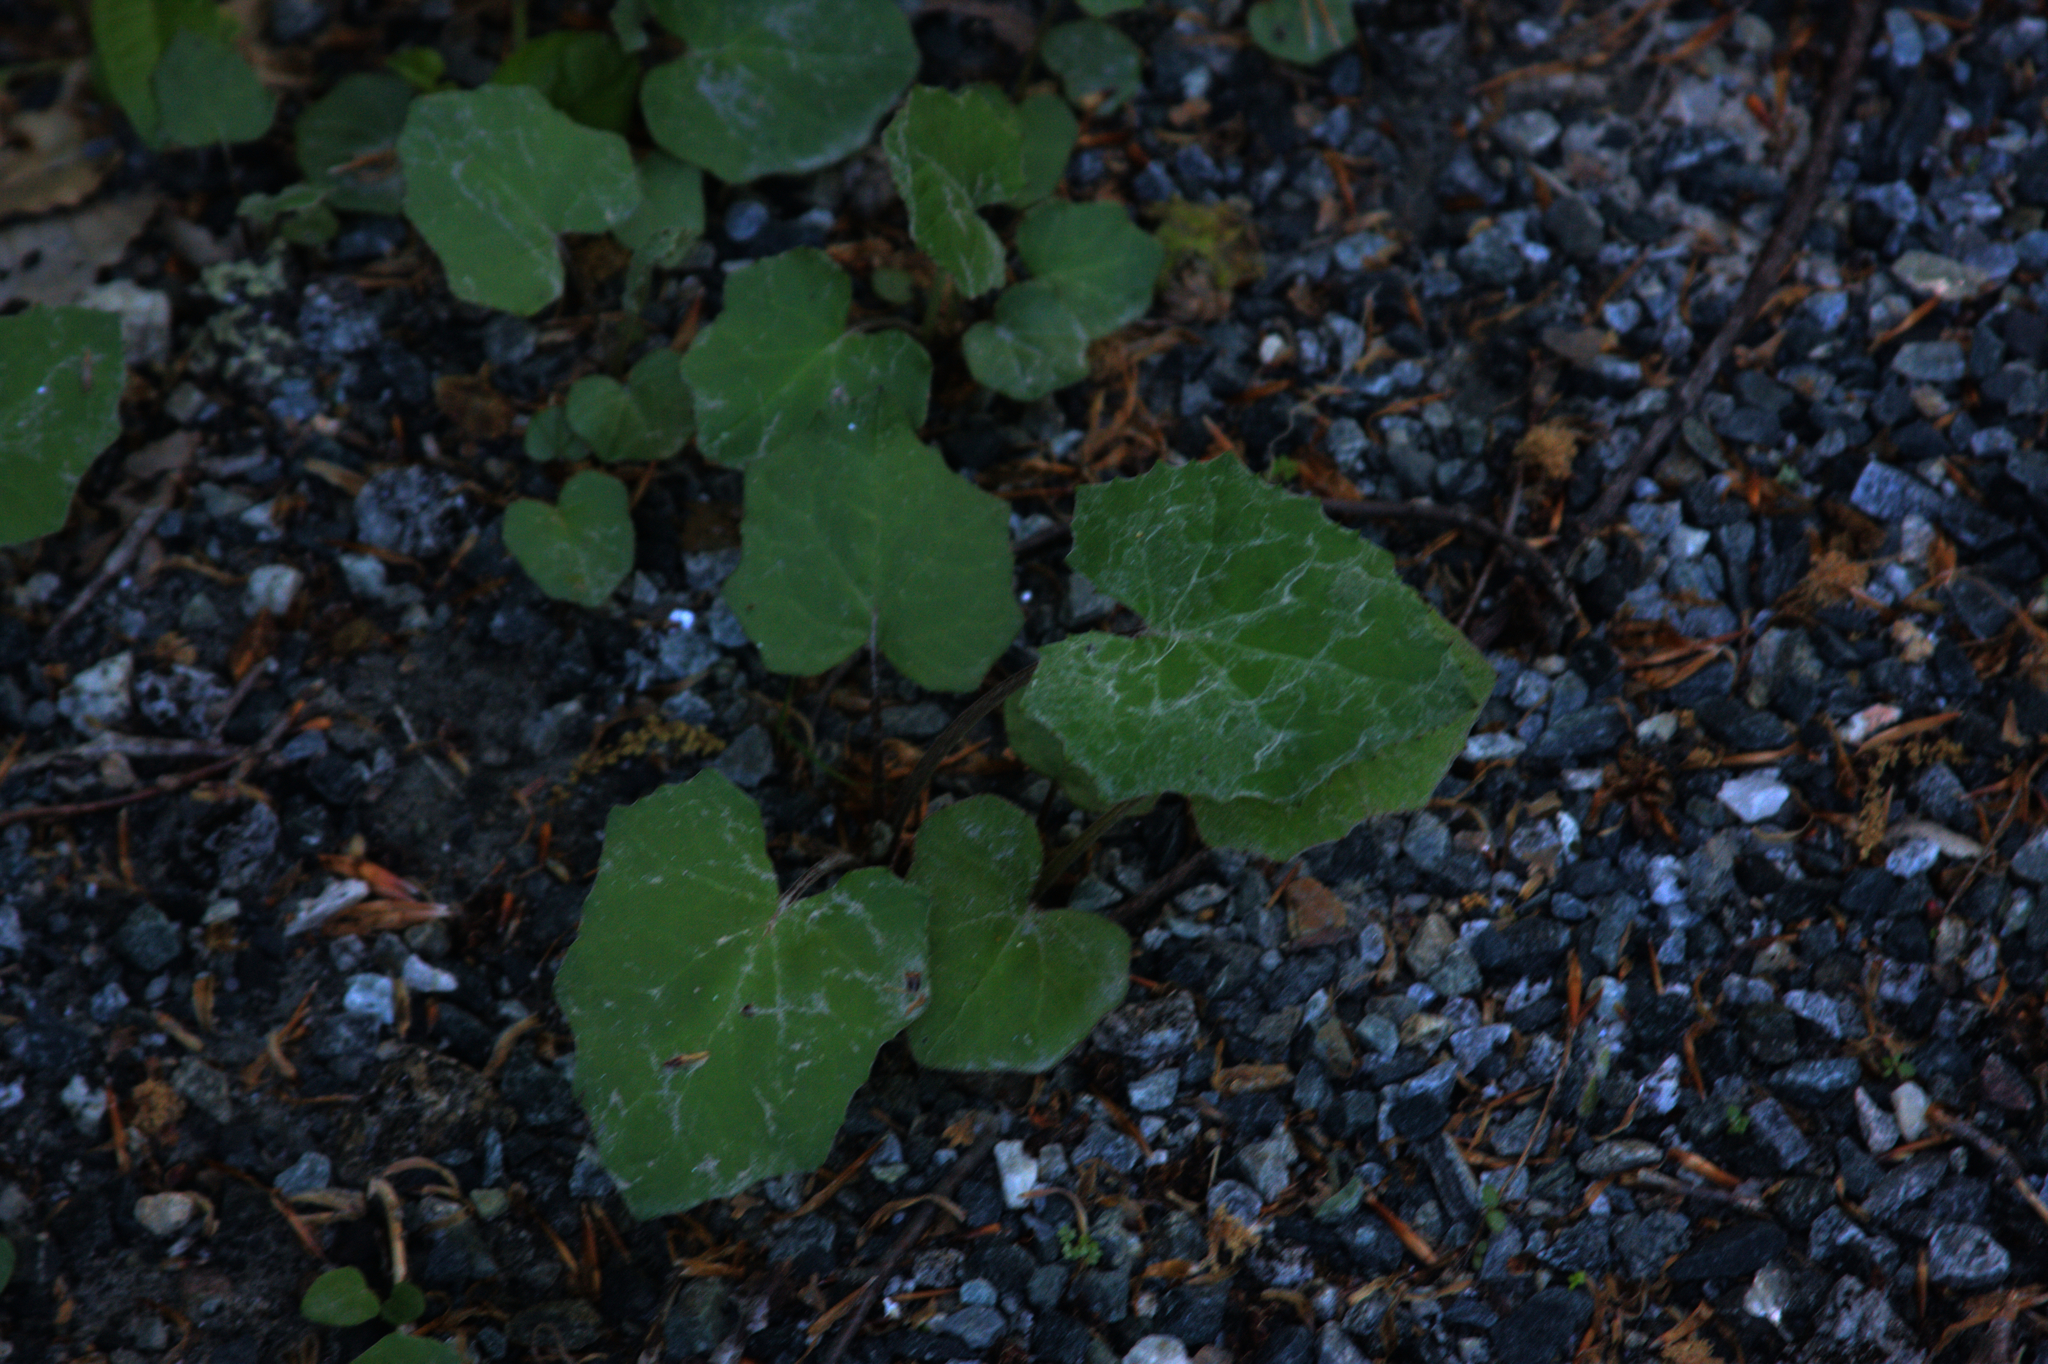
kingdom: Plantae
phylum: Tracheophyta
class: Magnoliopsida
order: Asterales
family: Asteraceae
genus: Tussilago
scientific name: Tussilago farfara
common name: Coltsfoot
